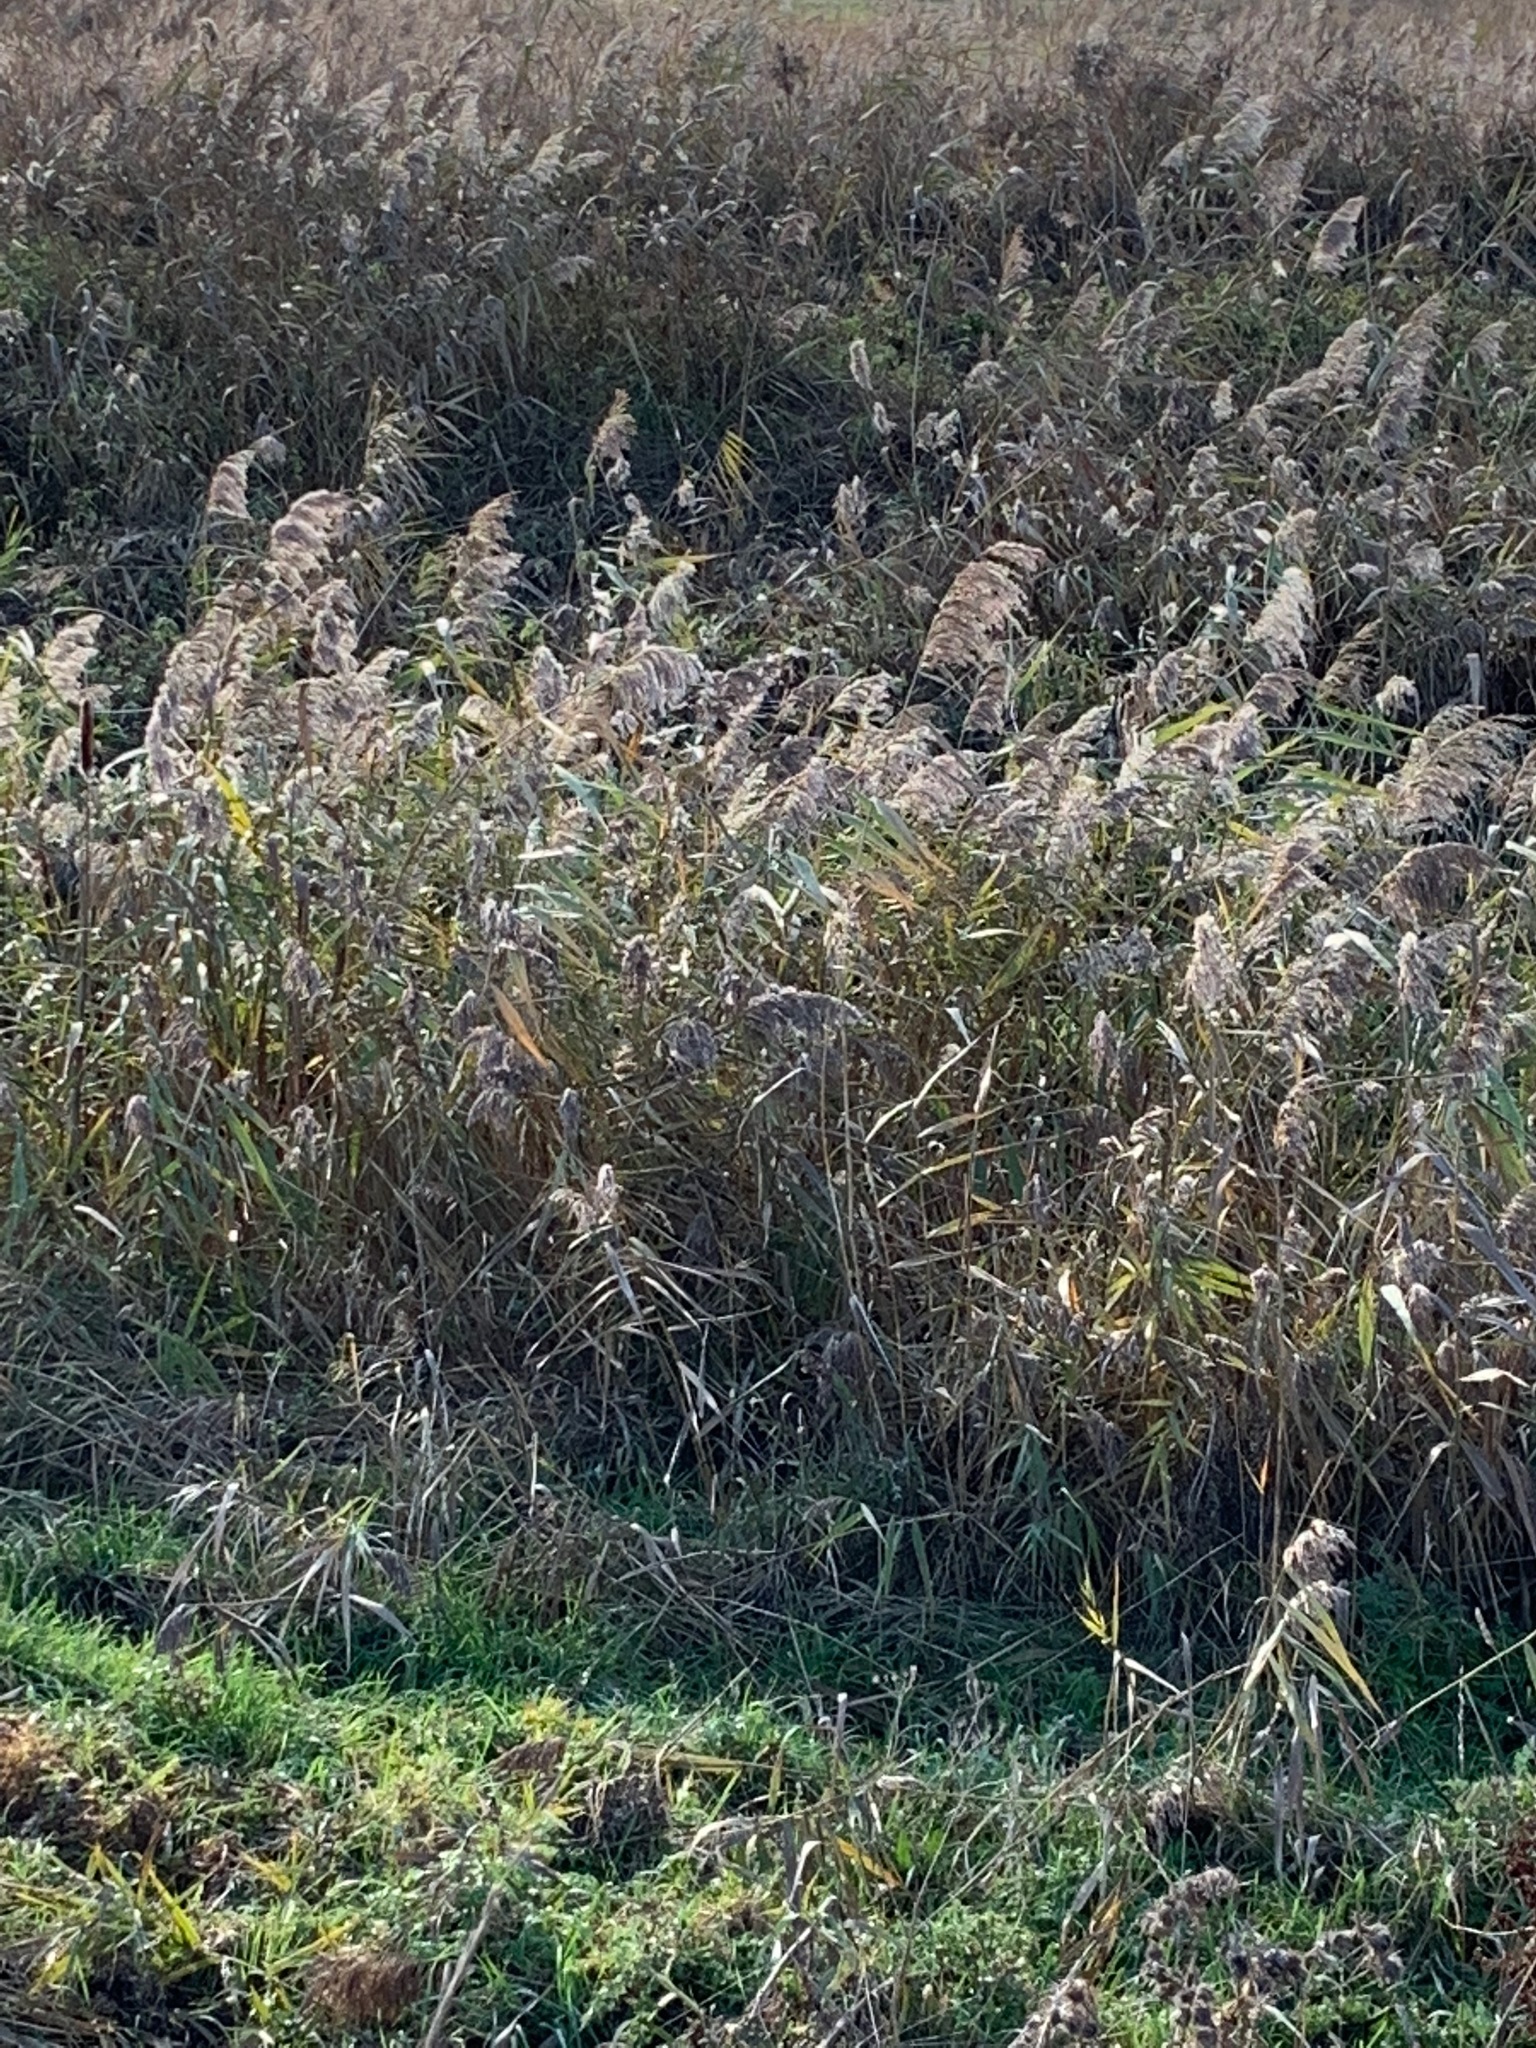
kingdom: Plantae
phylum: Tracheophyta
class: Liliopsida
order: Poales
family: Poaceae
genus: Phragmites
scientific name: Phragmites australis
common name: Common reed
